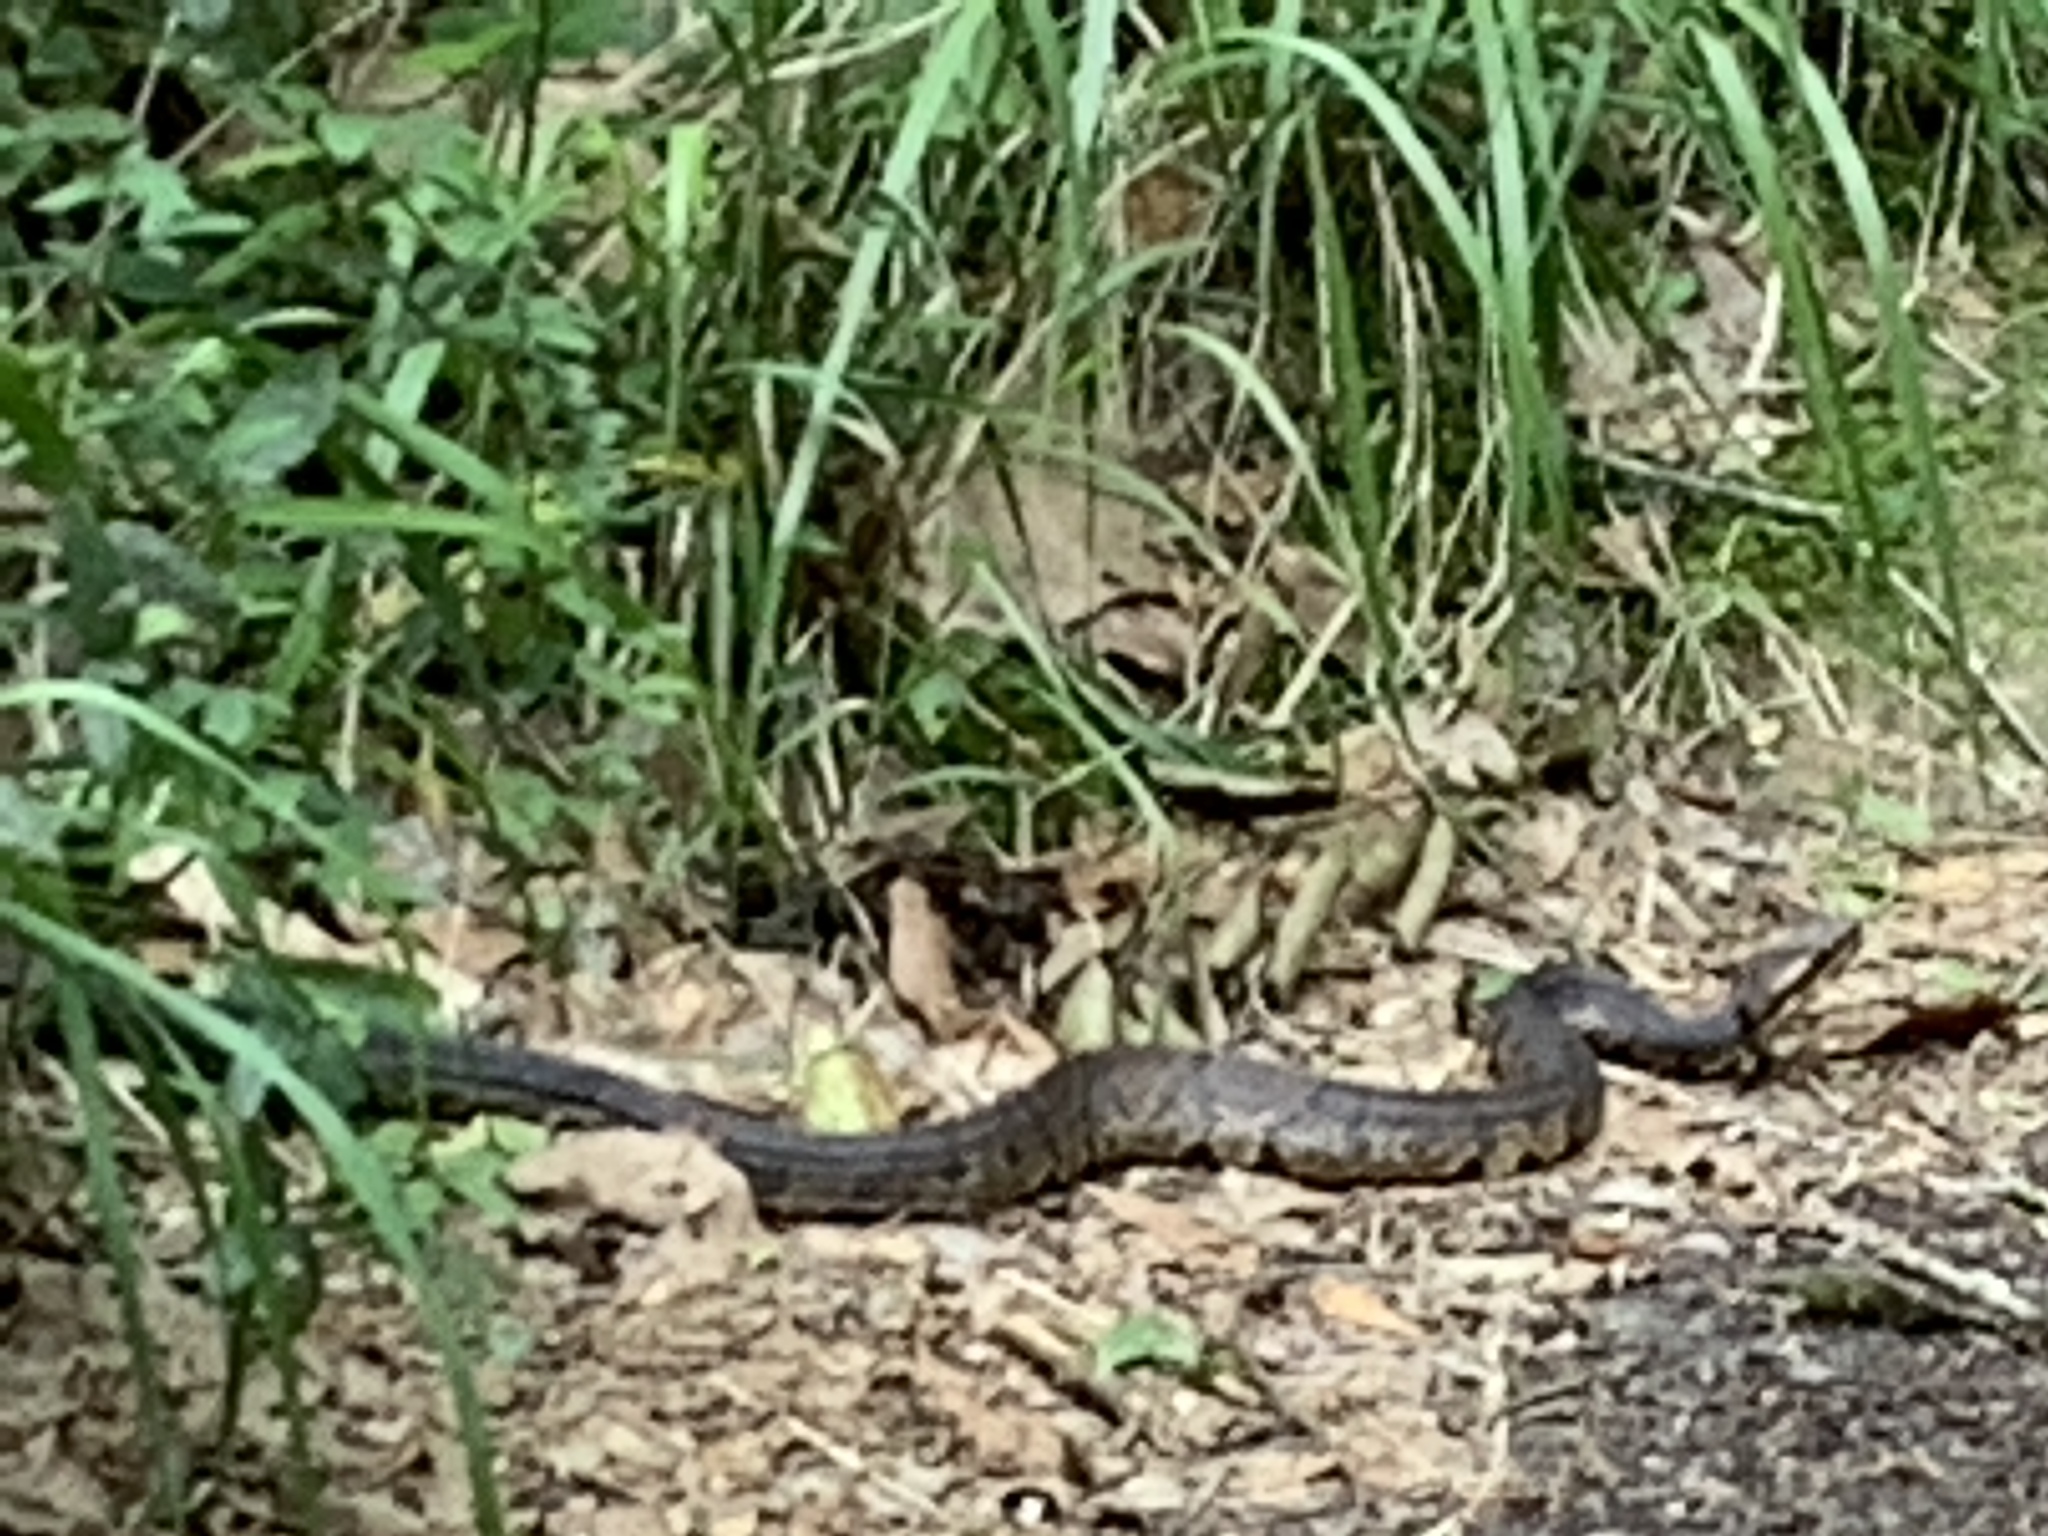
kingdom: Animalia
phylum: Chordata
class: Squamata
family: Viperidae
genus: Agkistrodon
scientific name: Agkistrodon piscivorus
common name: Cottonmouth
